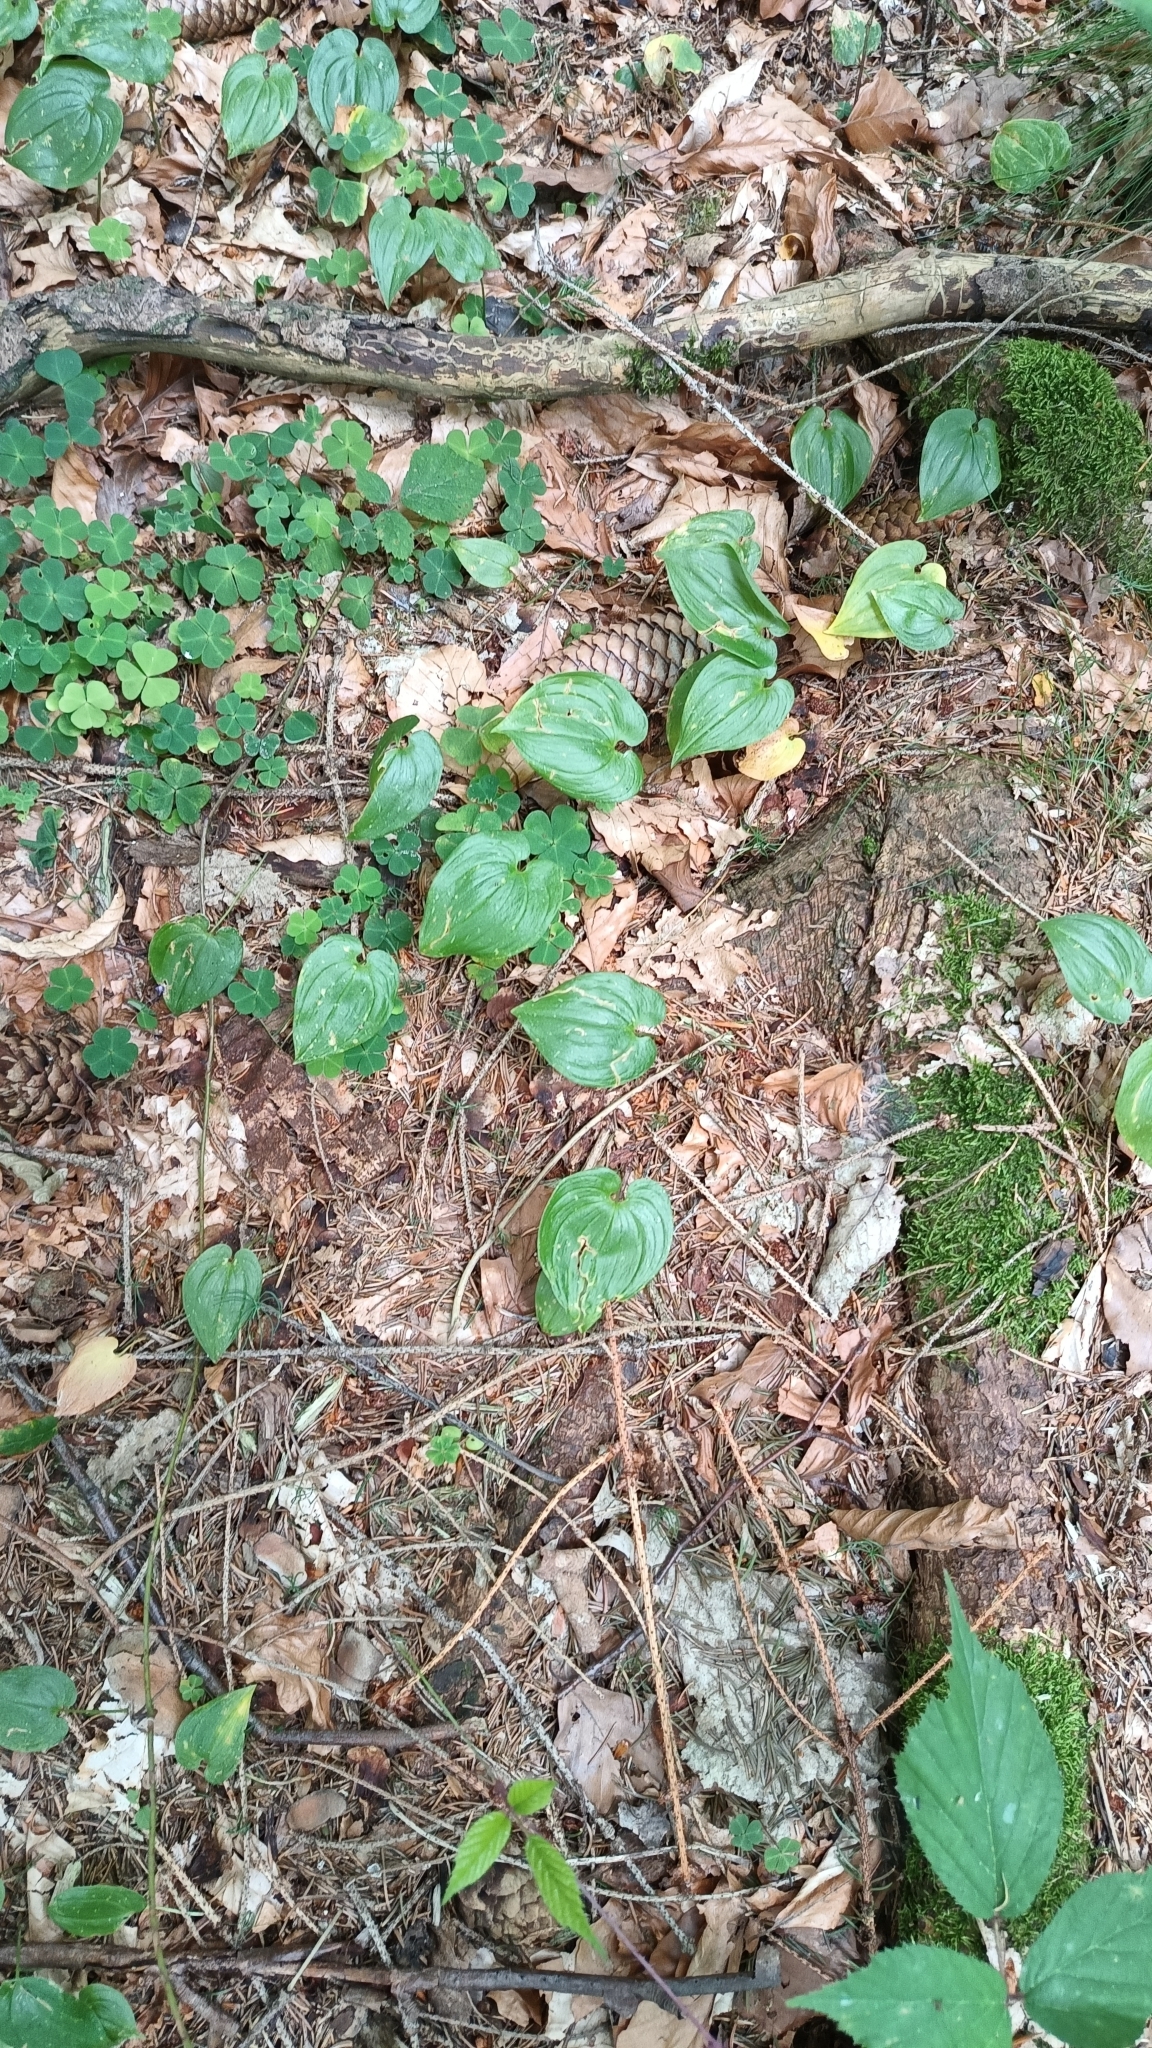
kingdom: Plantae
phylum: Tracheophyta
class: Liliopsida
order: Asparagales
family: Asparagaceae
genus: Maianthemum
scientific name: Maianthemum bifolium
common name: May lily
